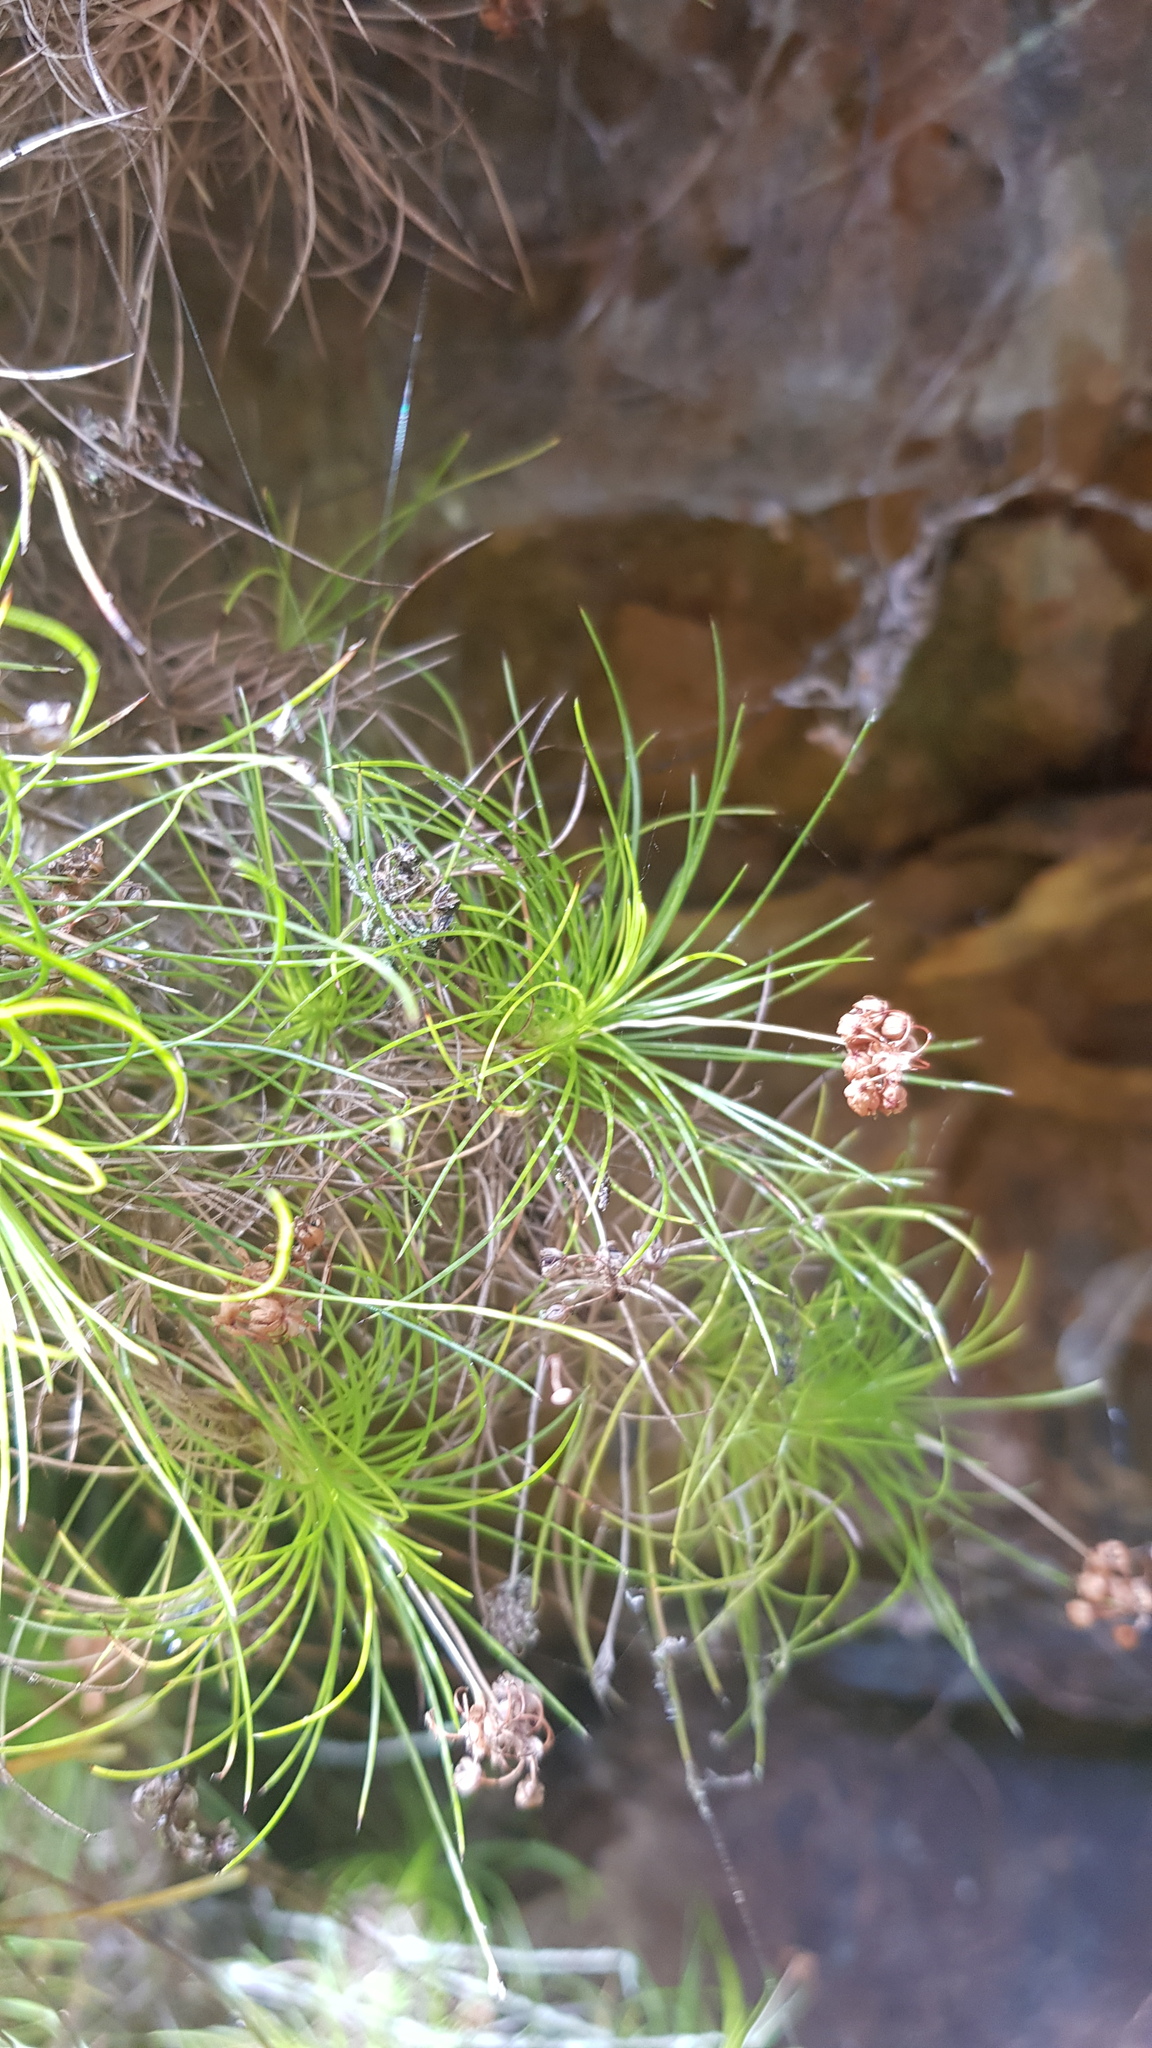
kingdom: Plantae
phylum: Tracheophyta
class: Liliopsida
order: Asparagales
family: Boryaceae
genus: Alania
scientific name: Alania cunninghamii
